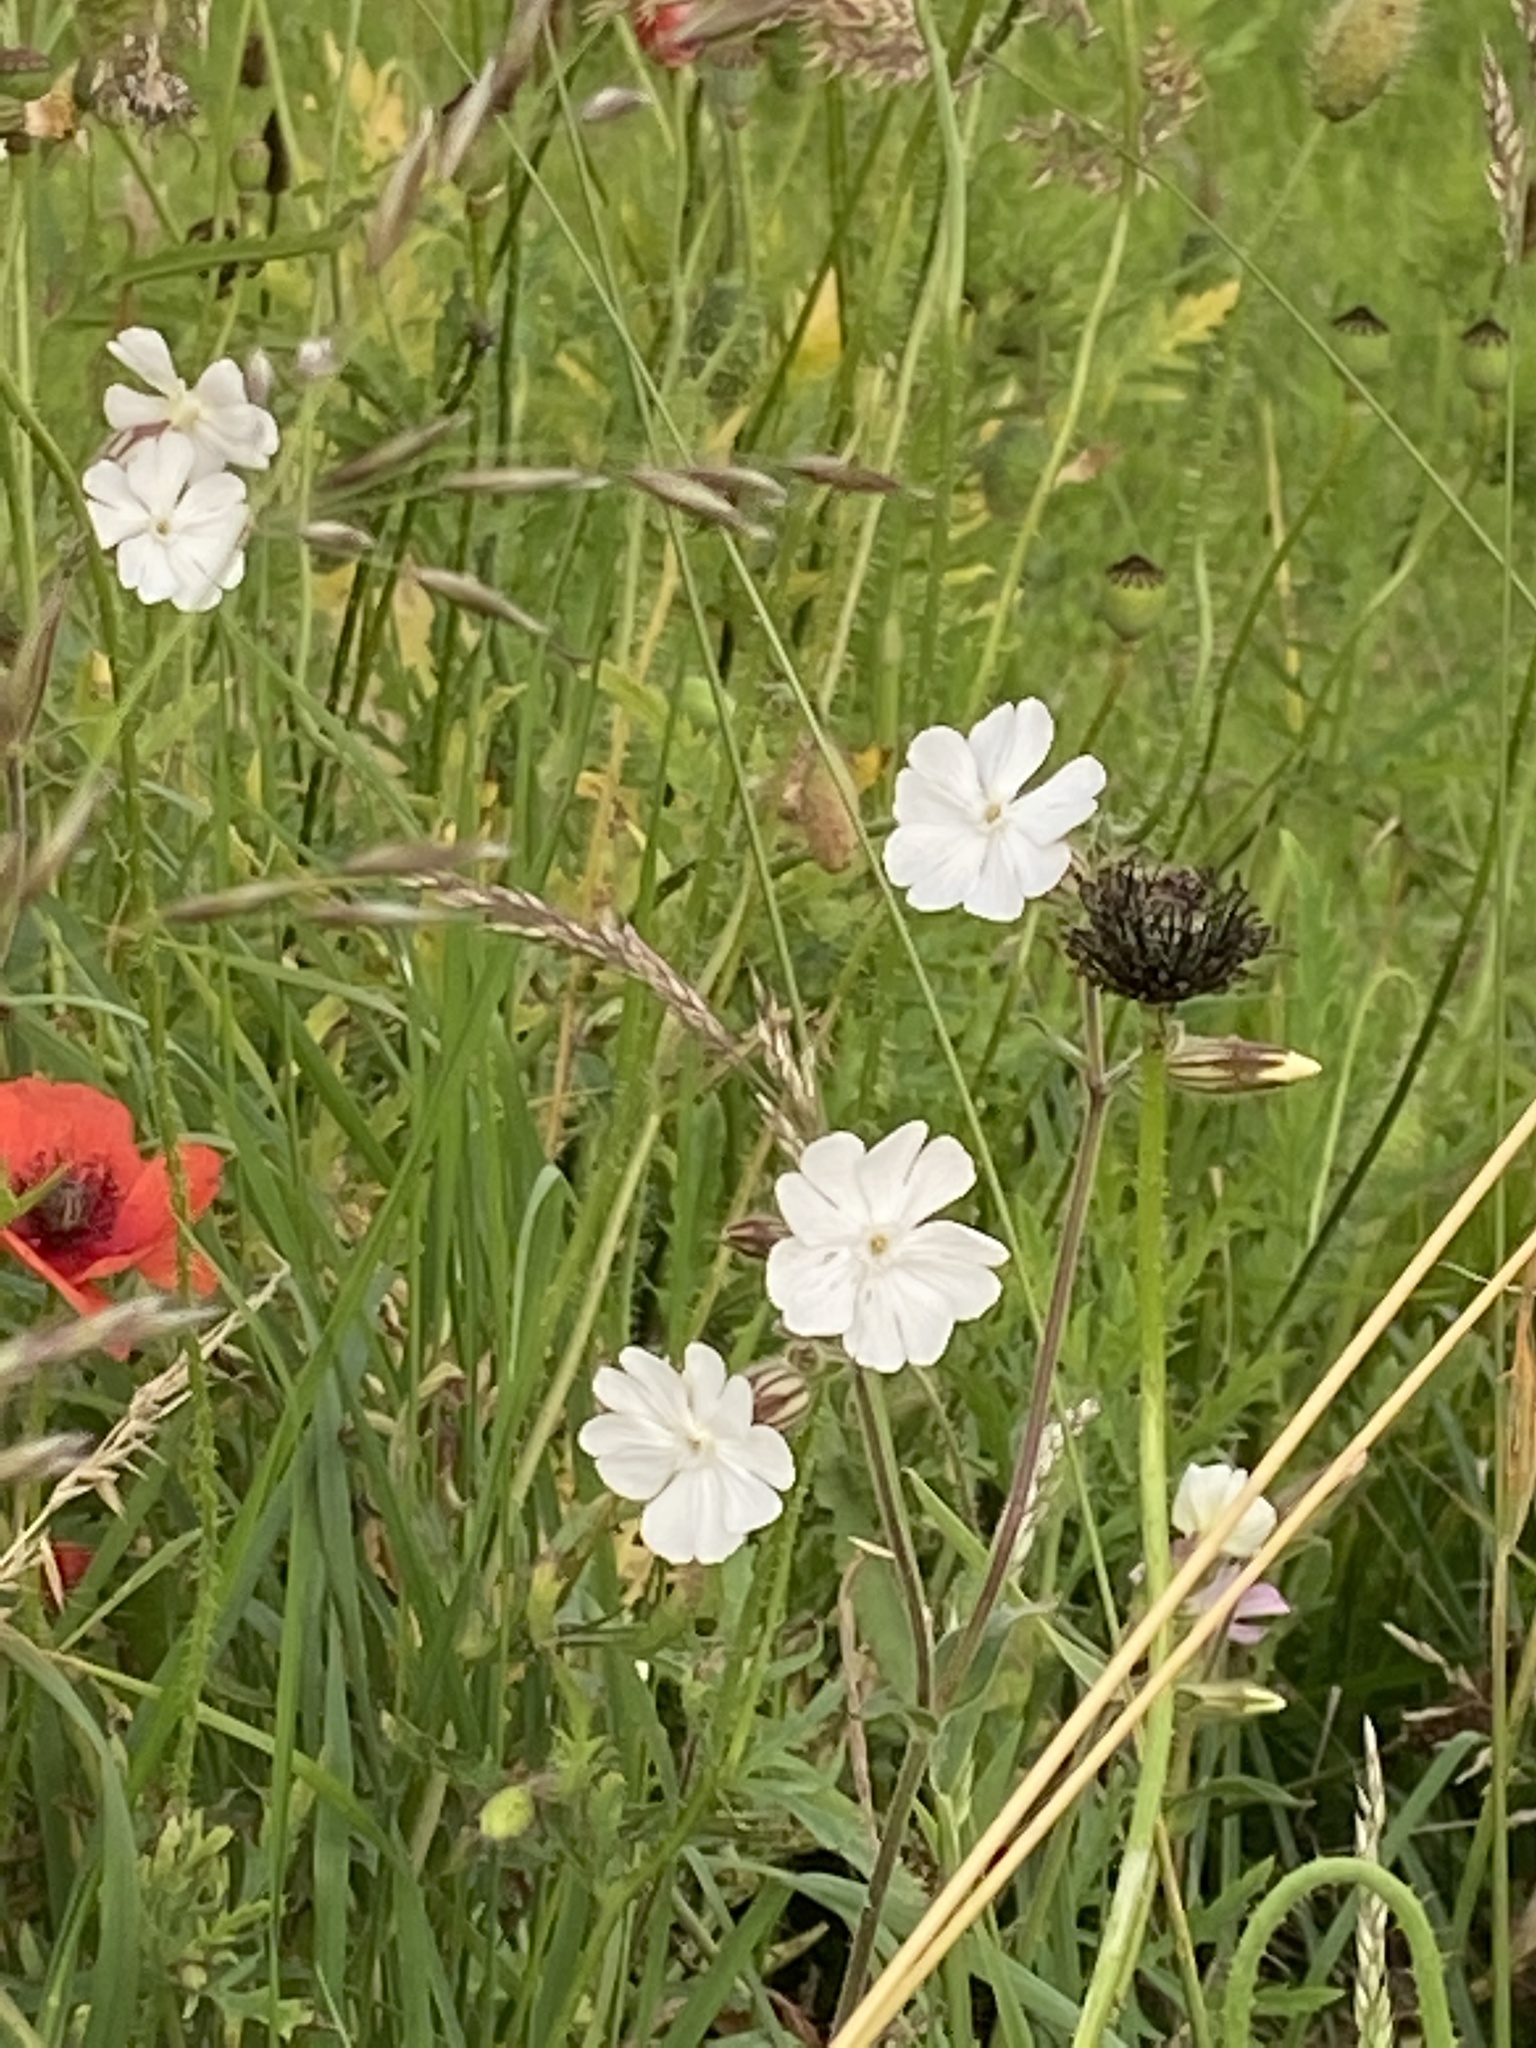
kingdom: Plantae
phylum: Tracheophyta
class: Magnoliopsida
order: Caryophyllales
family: Caryophyllaceae
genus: Silene
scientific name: Silene latifolia
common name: White campion
